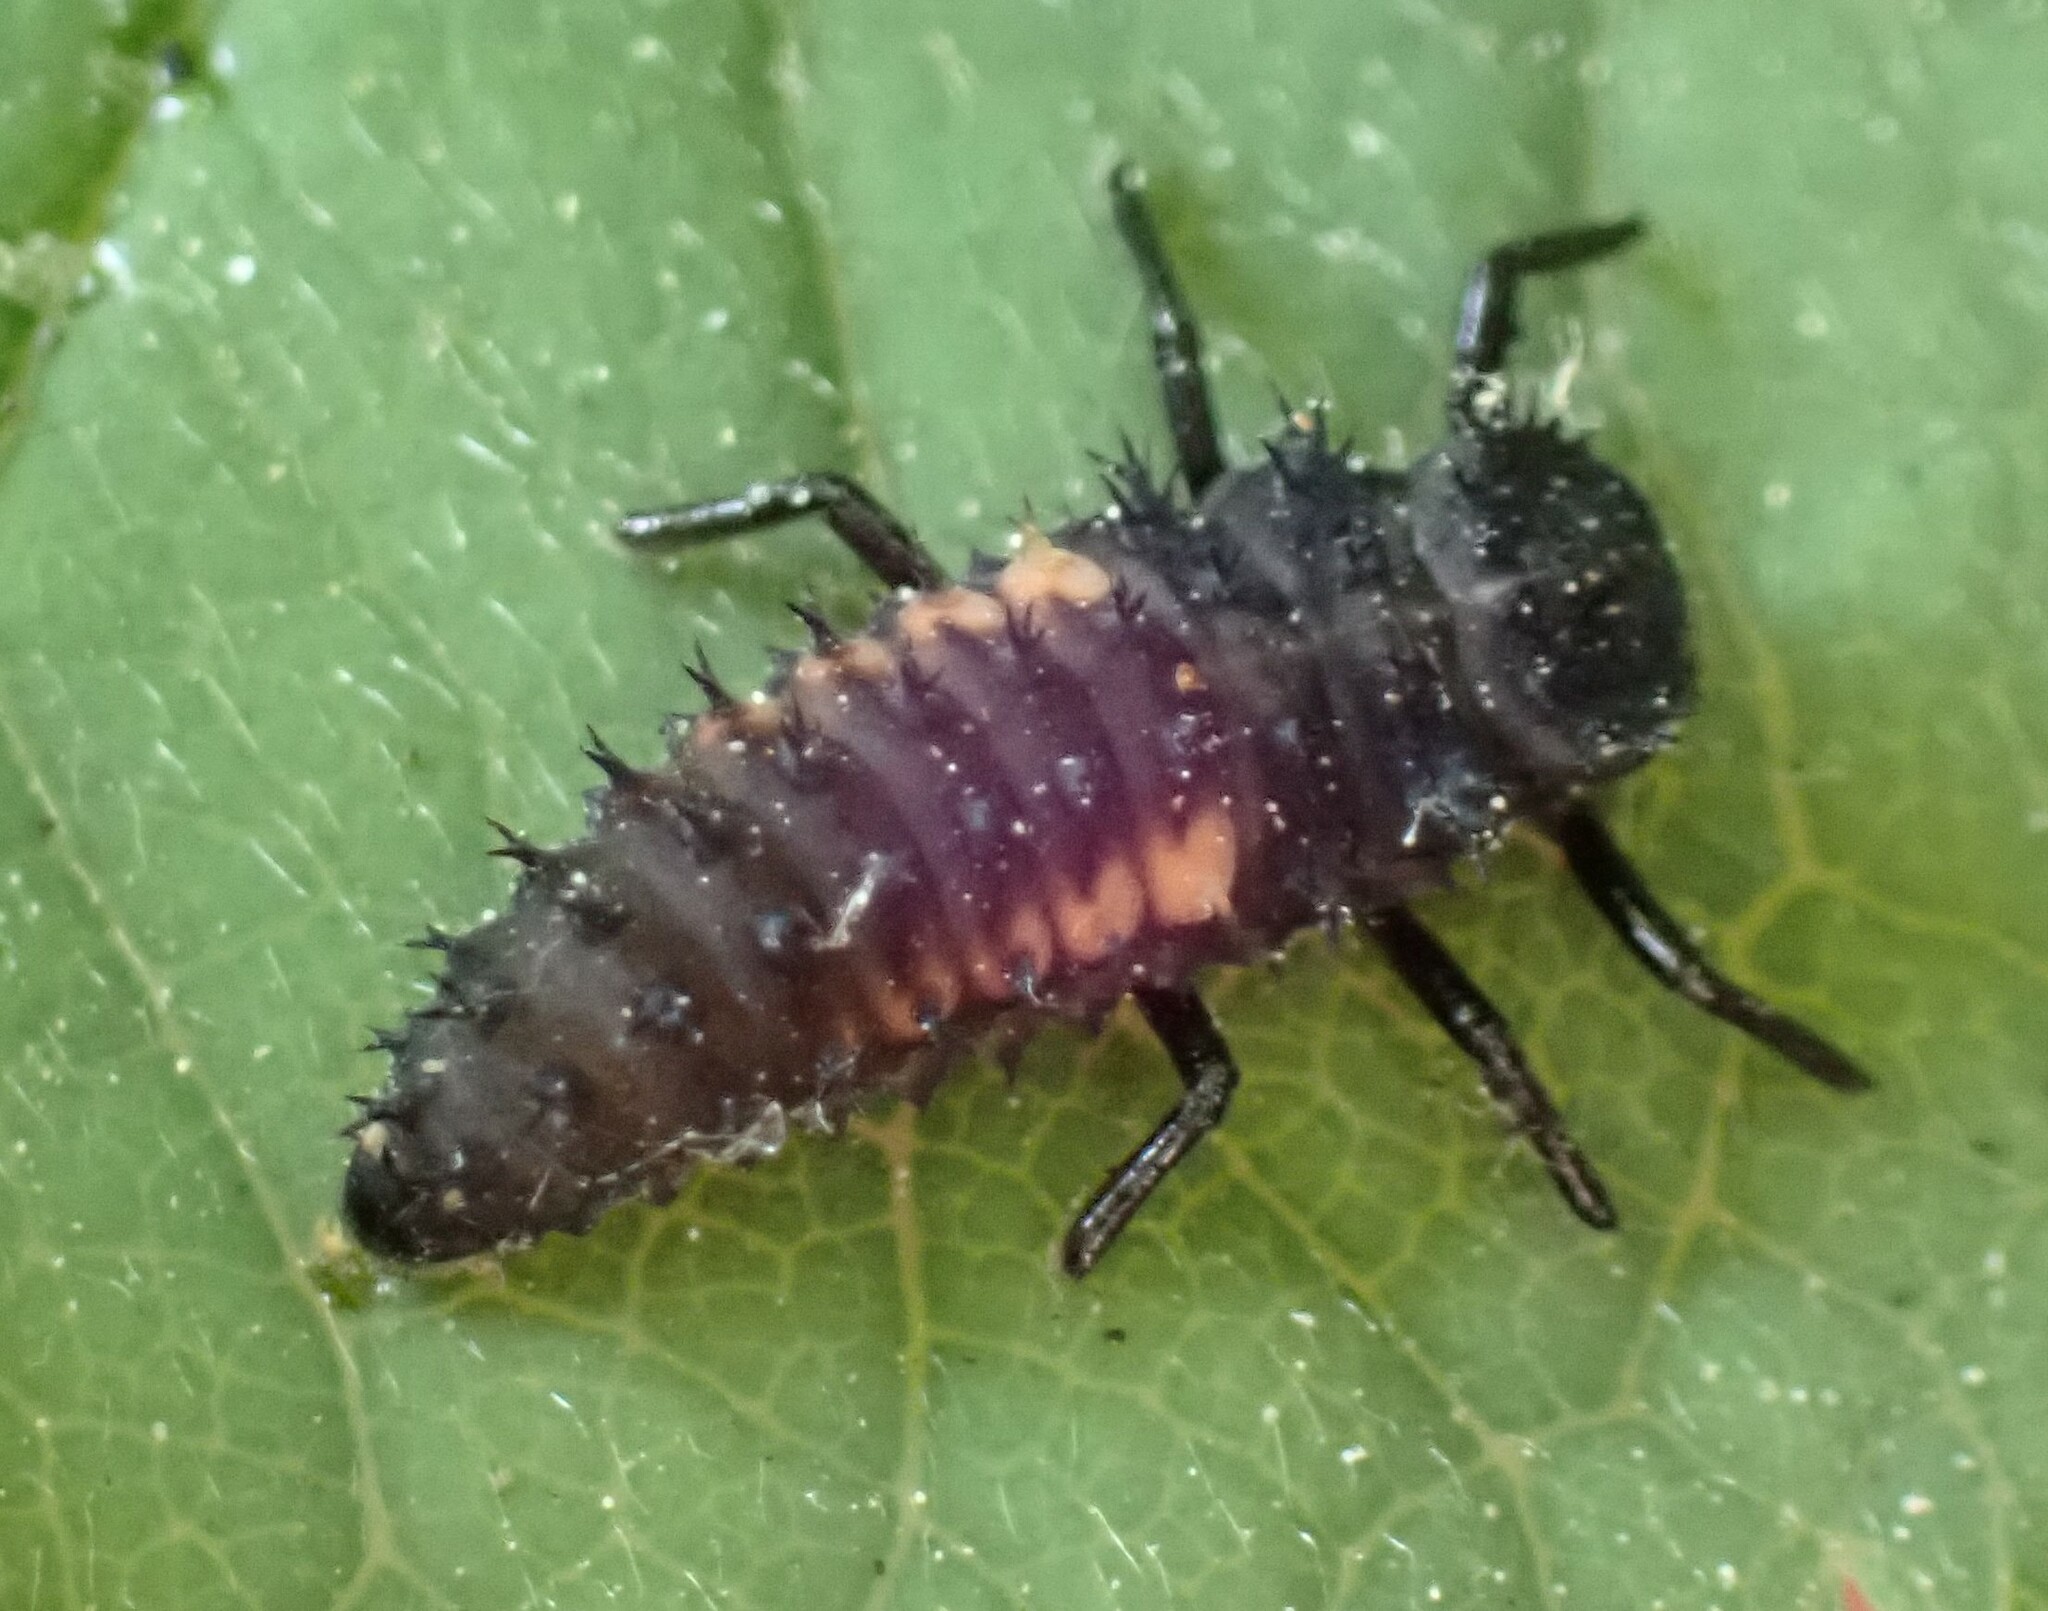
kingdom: Animalia
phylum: Arthropoda
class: Insecta
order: Coleoptera
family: Coccinellidae
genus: Harmonia
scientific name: Harmonia axyridis
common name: Harlequin ladybird
